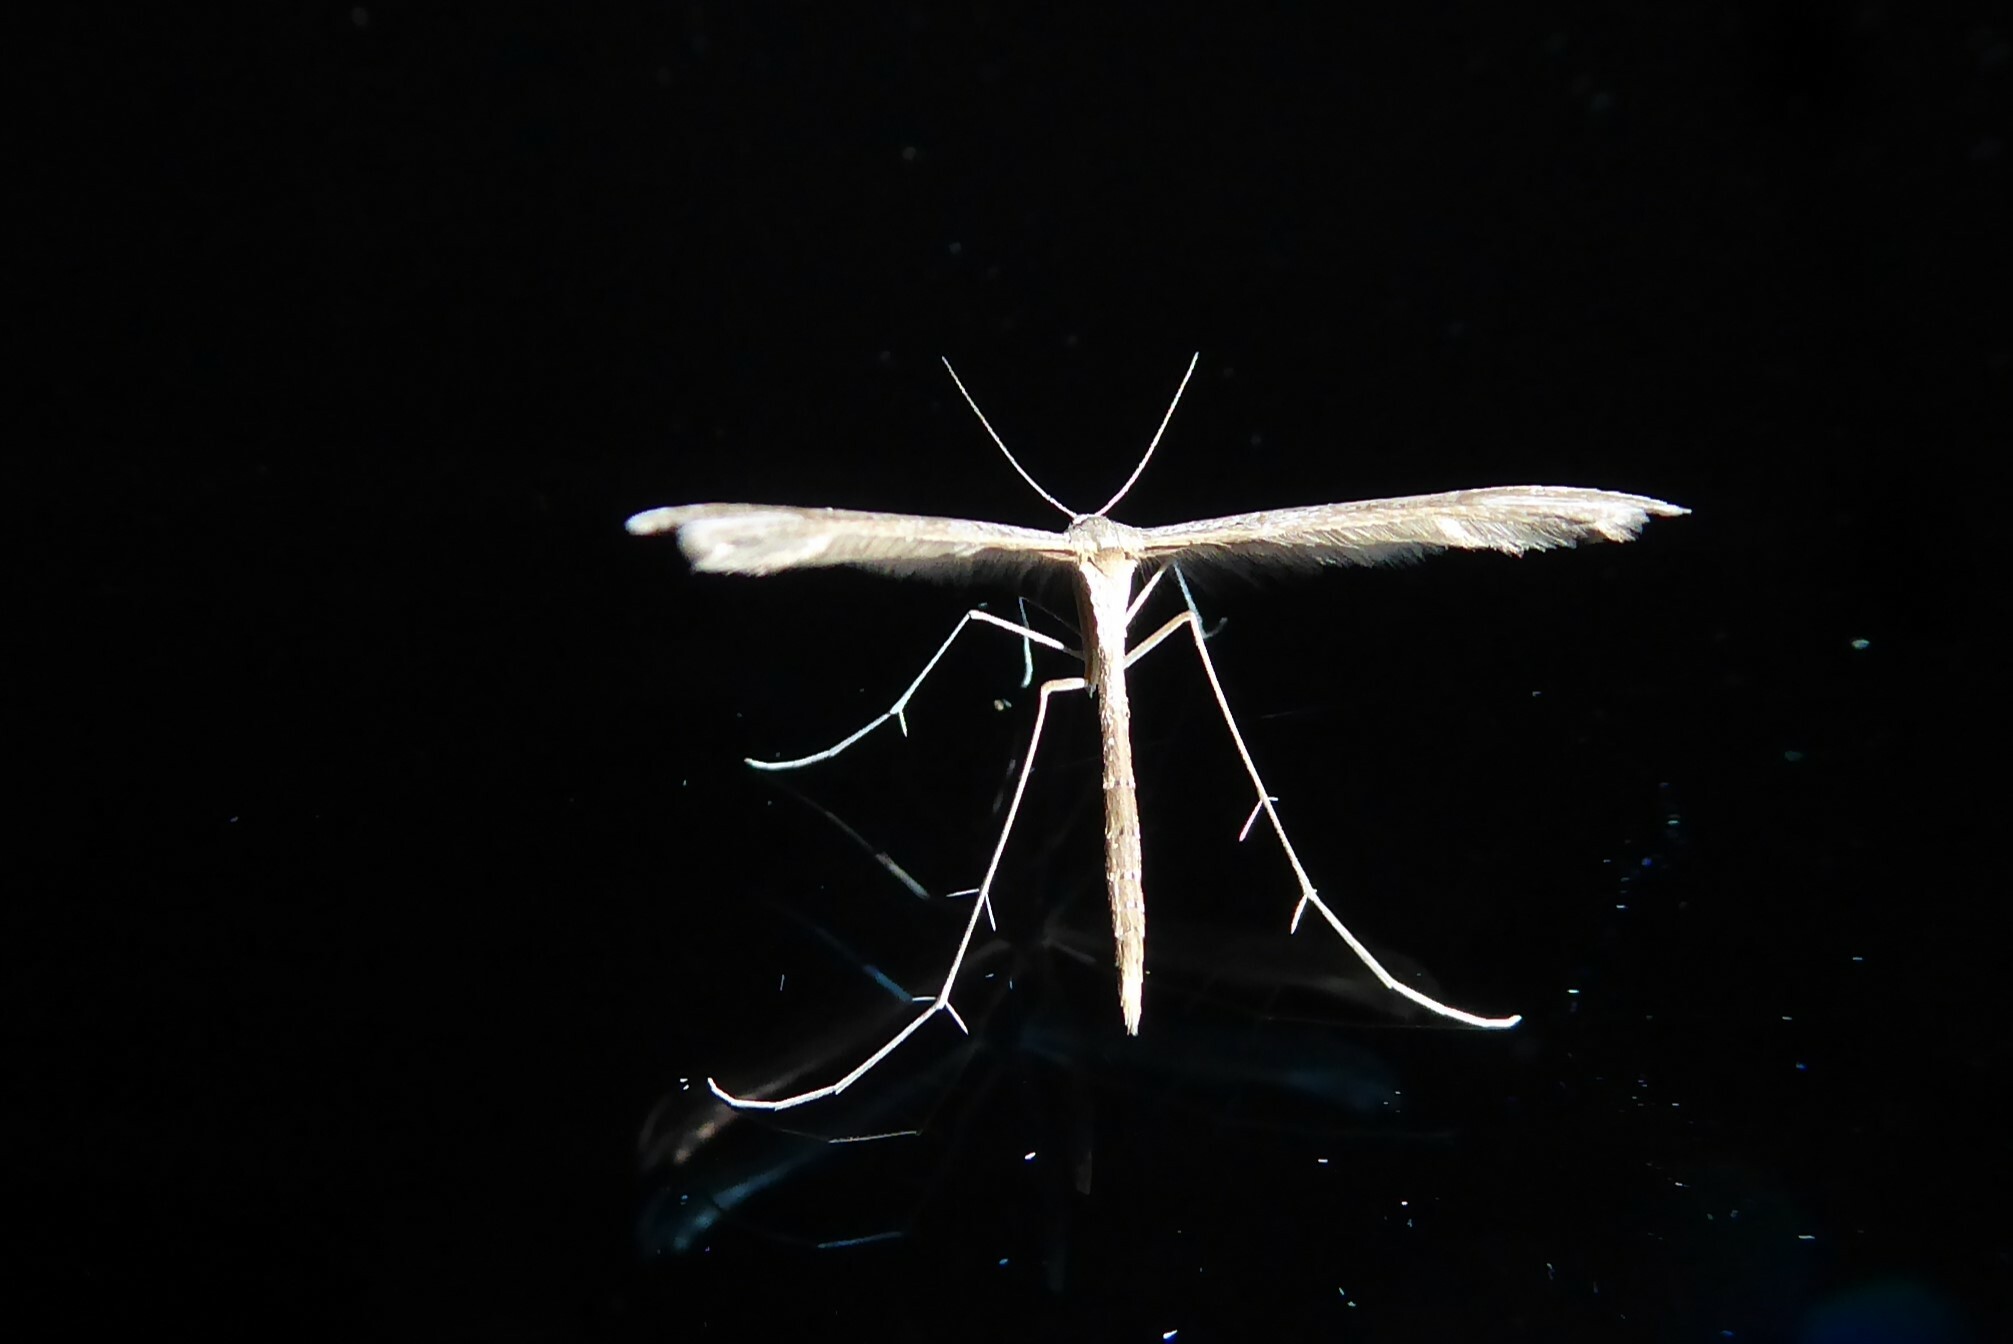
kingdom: Animalia
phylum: Arthropoda
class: Insecta
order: Lepidoptera
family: Pterophoridae
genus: Stenoptilia
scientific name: Stenoptilia zophodactylus
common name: Dowdy plume
